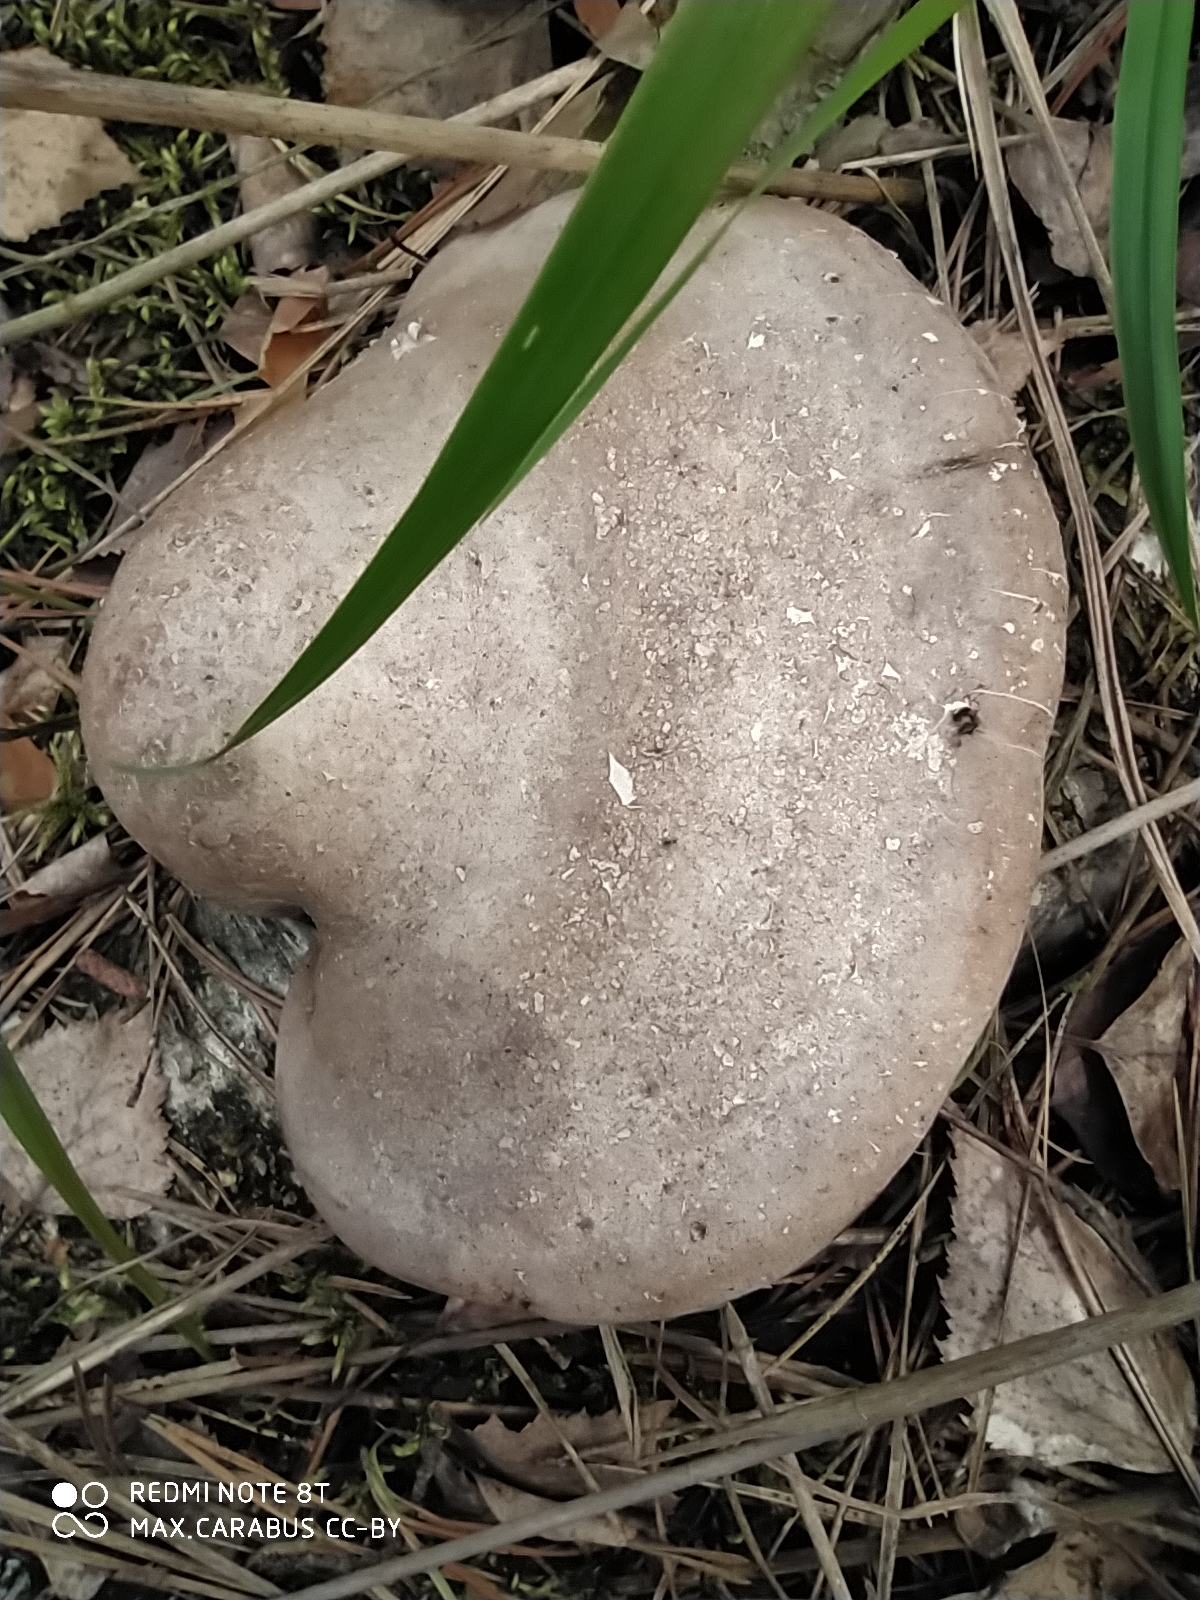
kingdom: Fungi
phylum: Basidiomycota
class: Agaricomycetes
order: Polyporales
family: Fomitopsidaceae
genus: Fomitopsis
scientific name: Fomitopsis betulina
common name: Birch polypore
